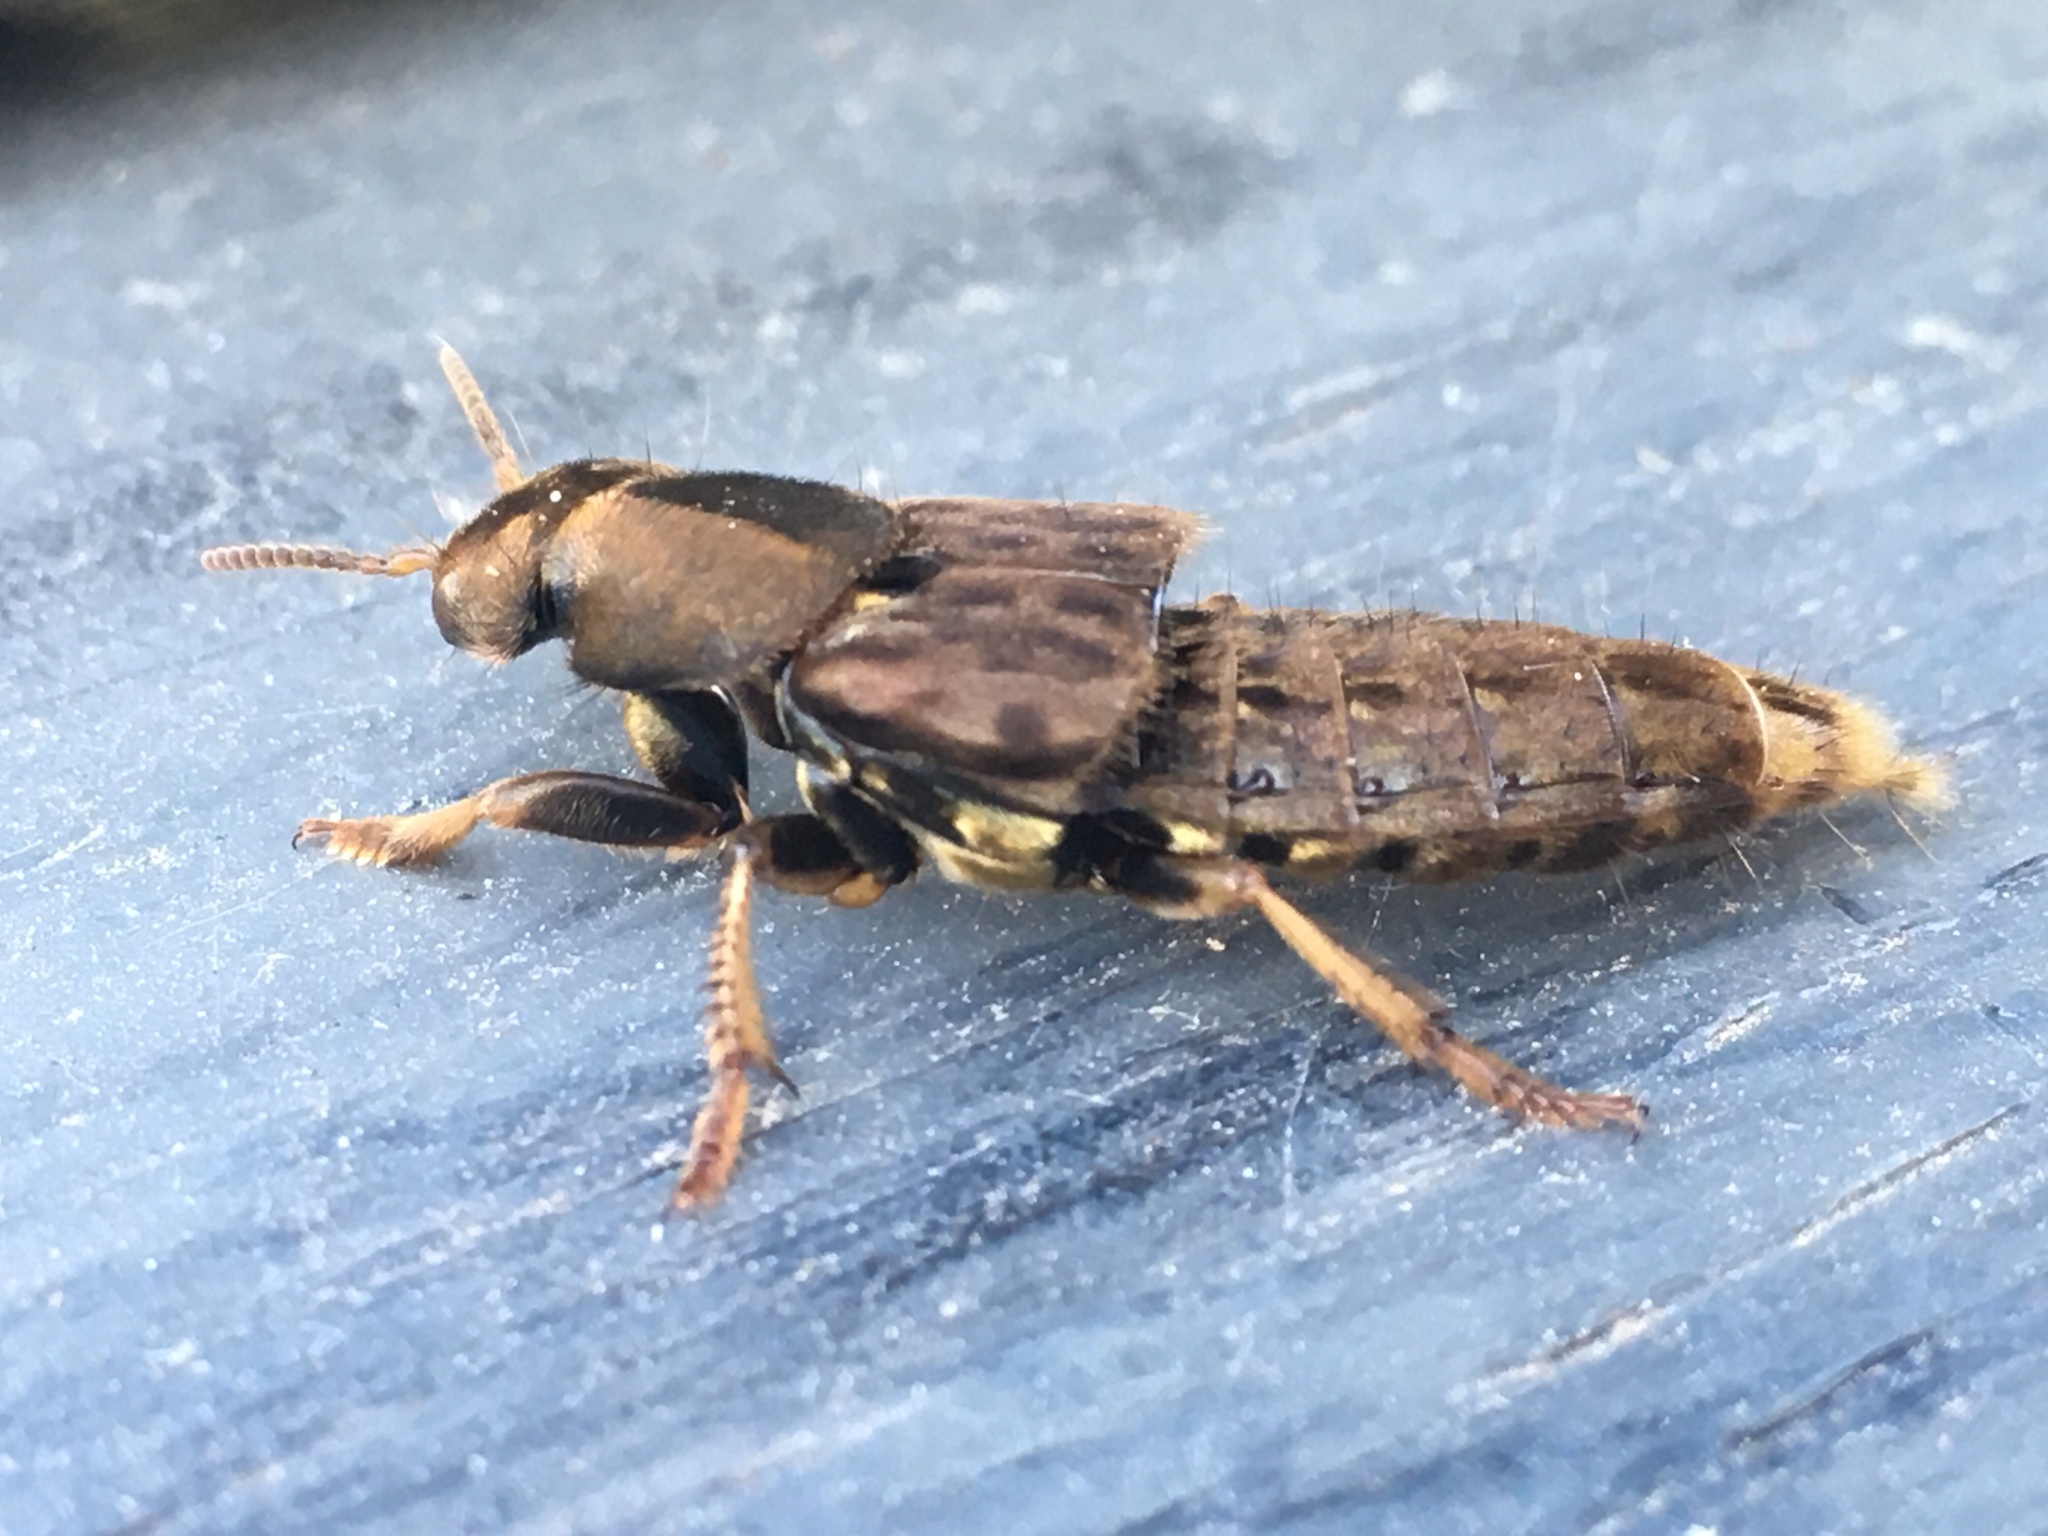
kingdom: Animalia
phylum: Arthropoda
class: Insecta
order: Coleoptera
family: Staphylinidae
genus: Platydracus
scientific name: Platydracus maculosus
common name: Brown rove beetle
